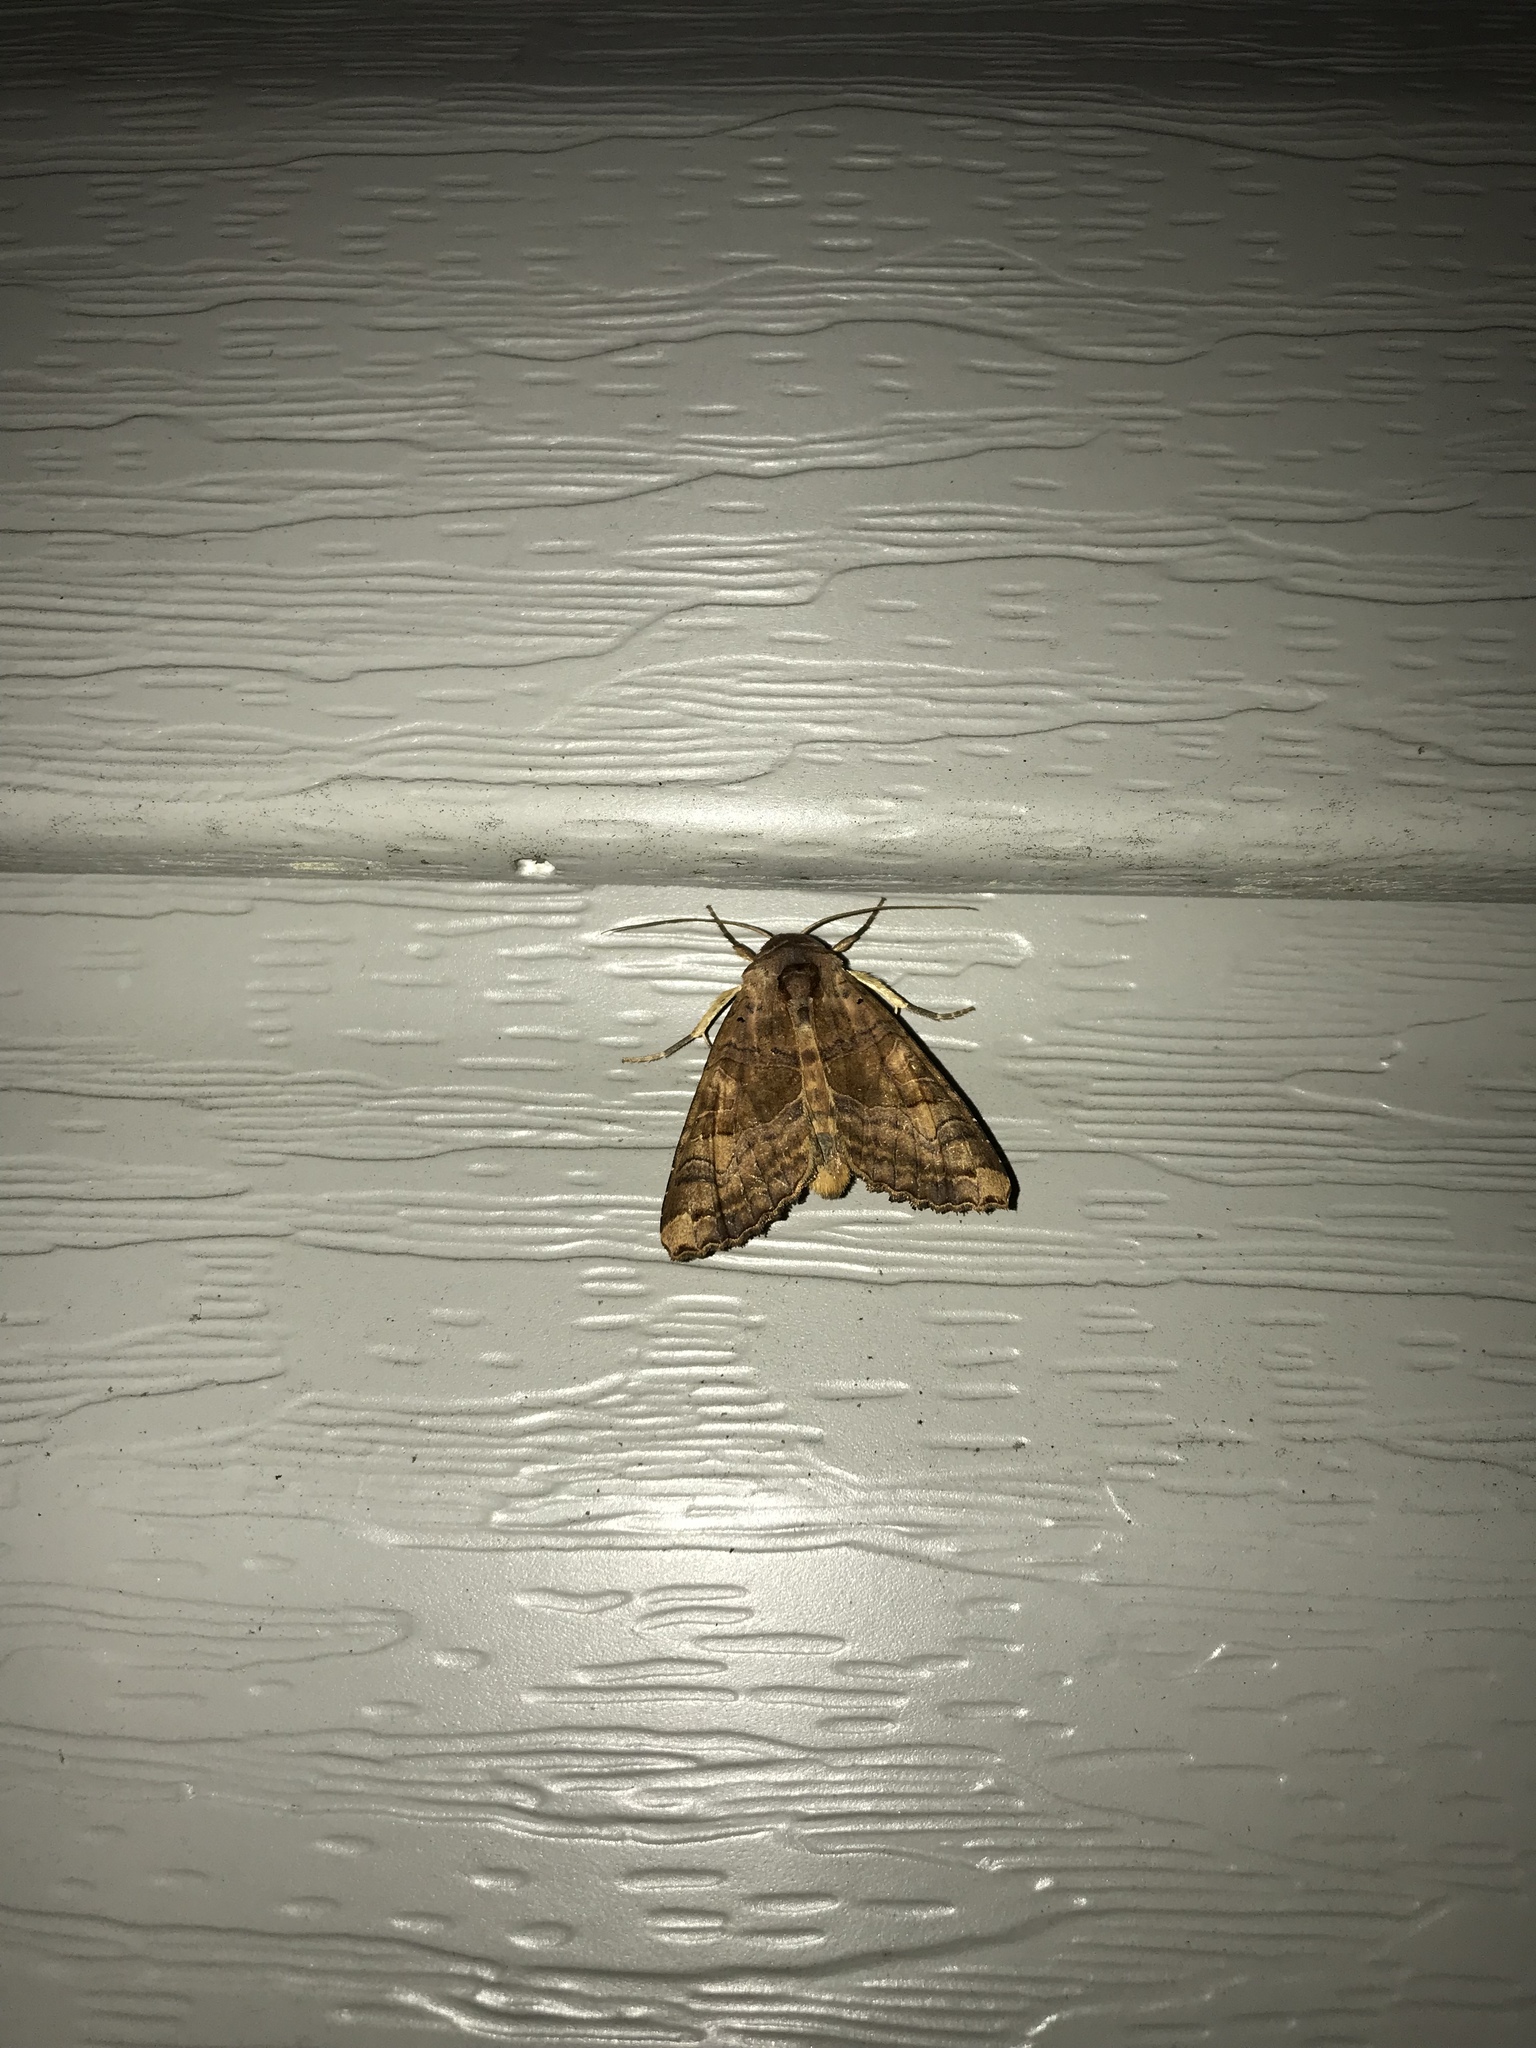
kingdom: Animalia
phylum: Arthropoda
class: Insecta
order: Lepidoptera
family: Noctuidae
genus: Nephelodes
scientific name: Nephelodes minians
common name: Bronzed cutworm
